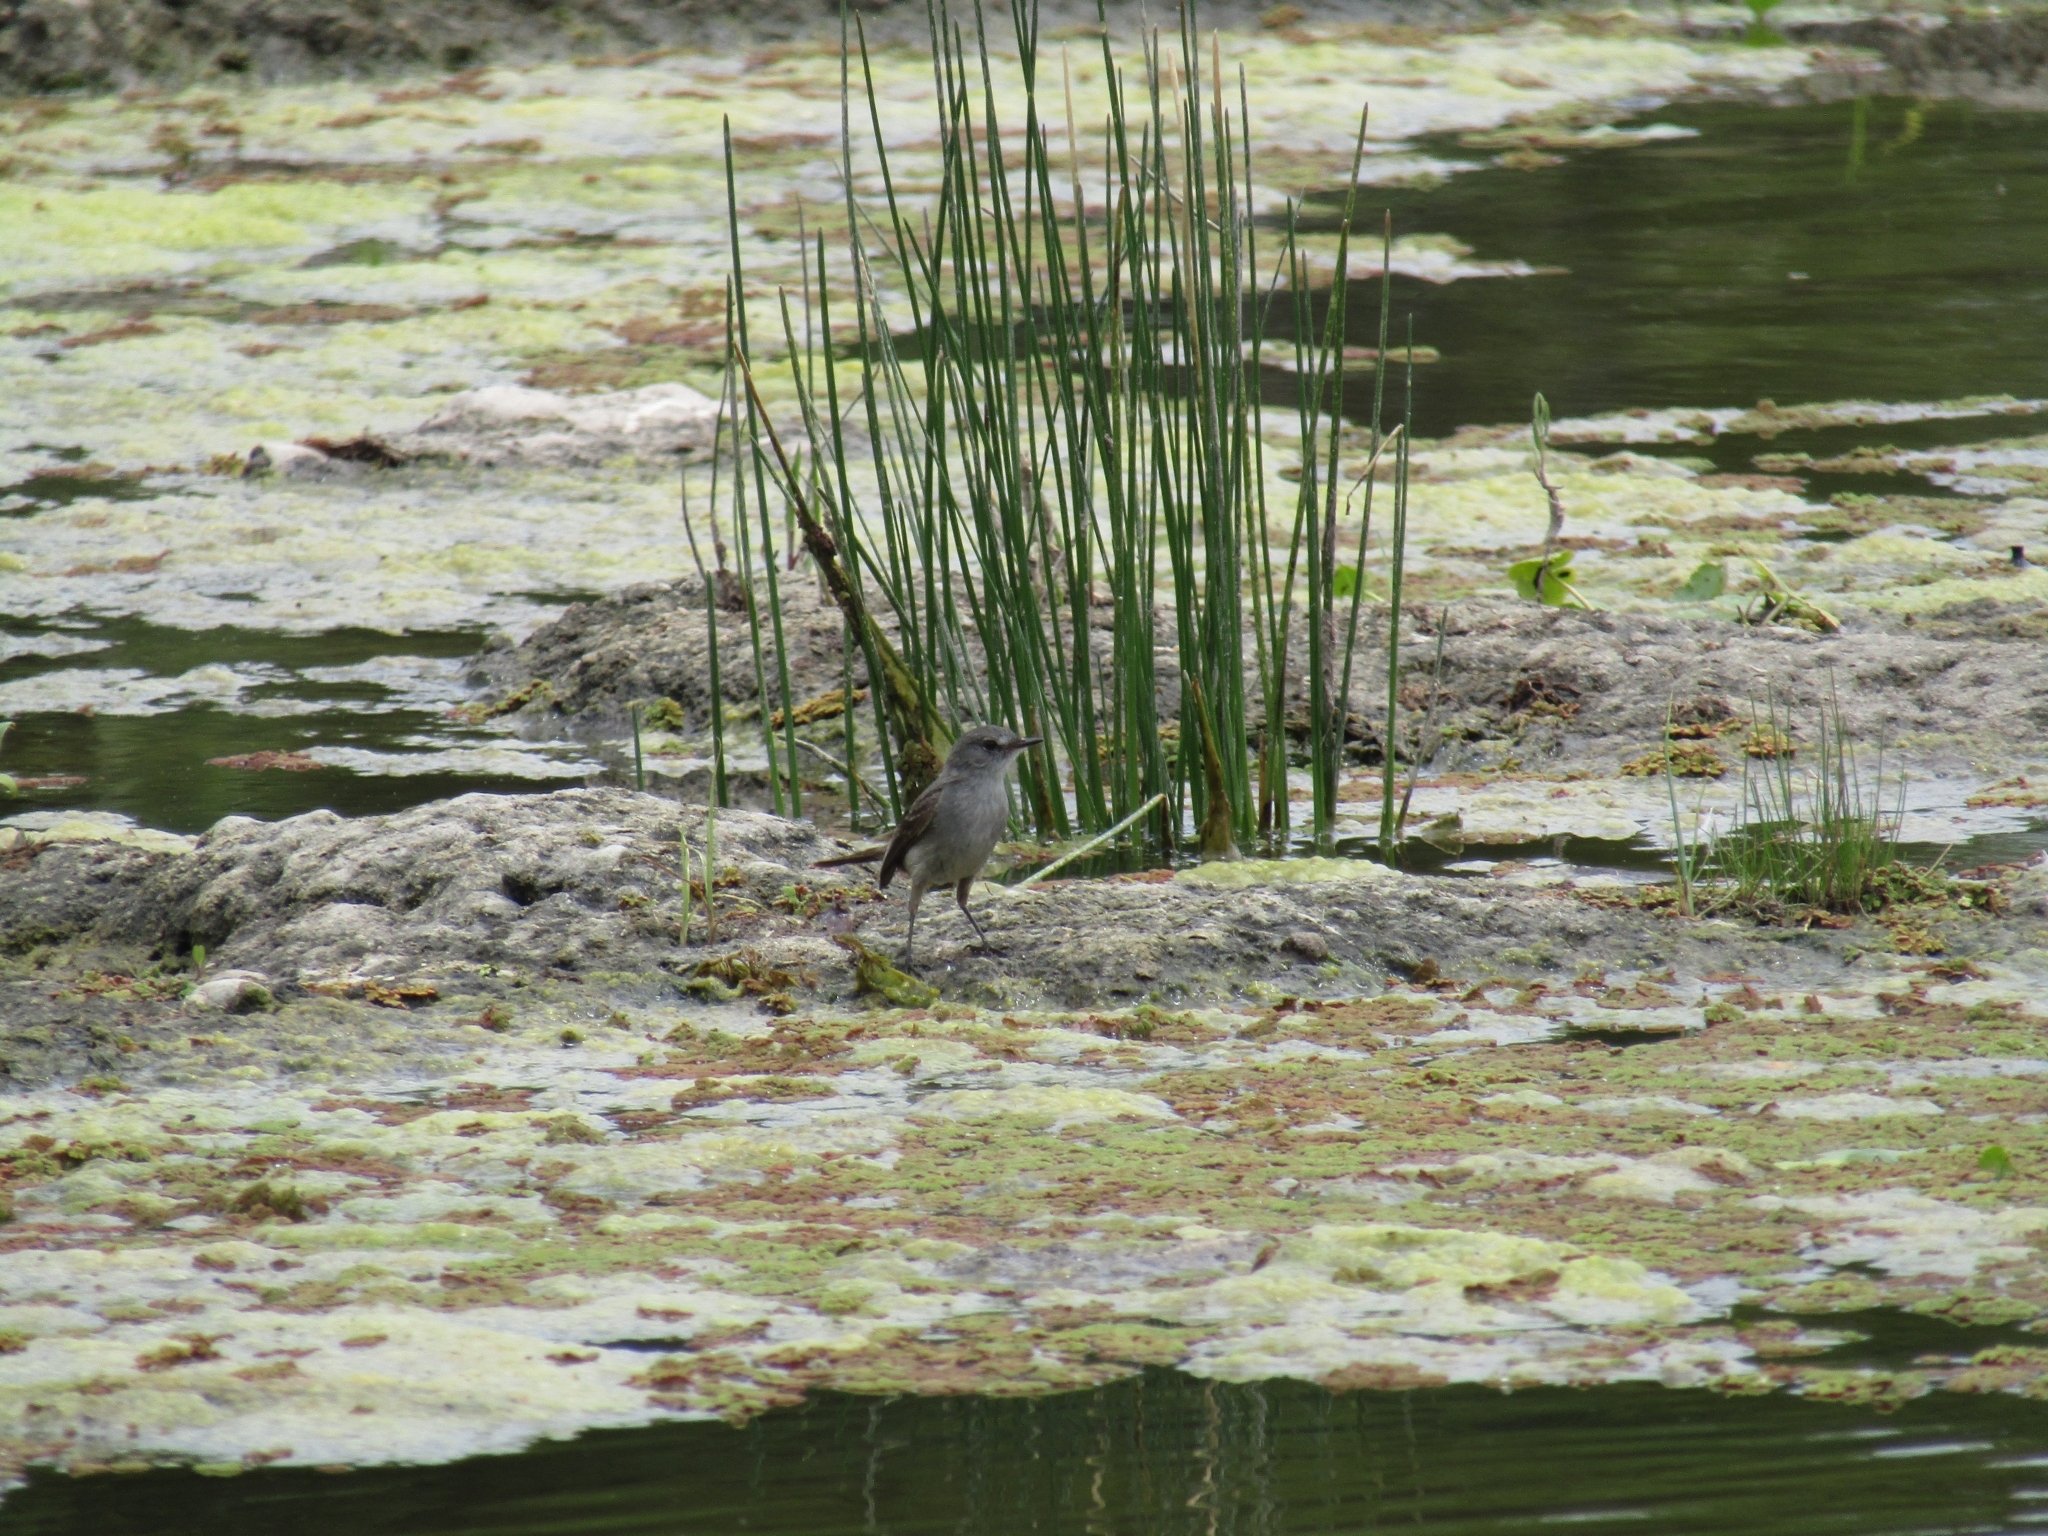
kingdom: Animalia
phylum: Chordata
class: Aves
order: Passeriformes
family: Tyrannidae
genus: Serpophaga
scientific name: Serpophaga nigricans
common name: Sooty tyrannulet
